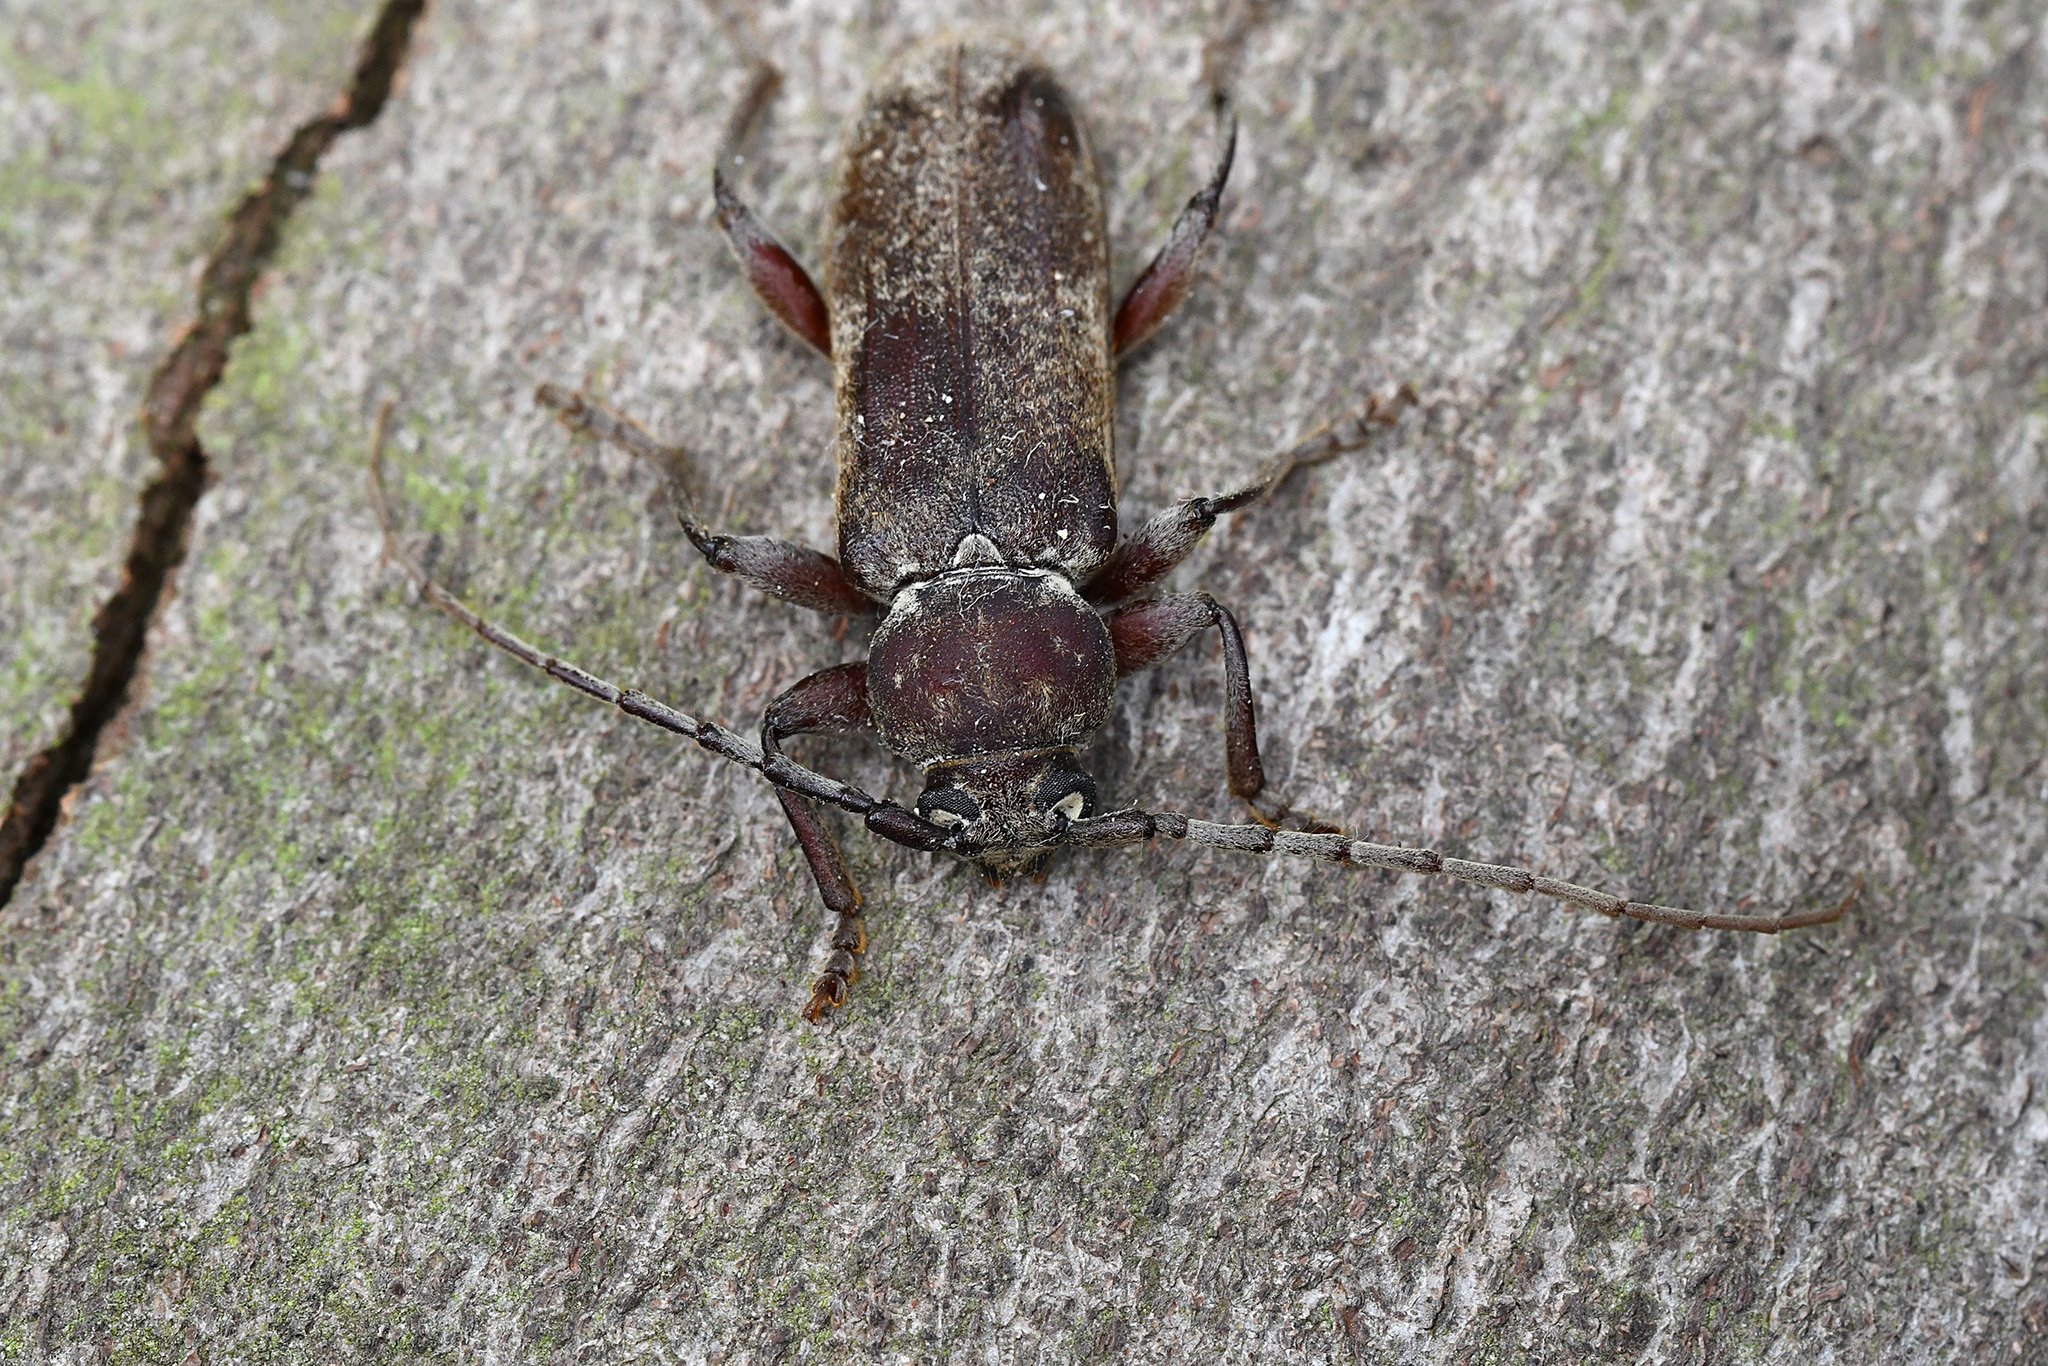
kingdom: Animalia
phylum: Arthropoda
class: Insecta
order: Coleoptera
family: Cerambycidae
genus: Trichoferus
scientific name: Trichoferus bergeri
